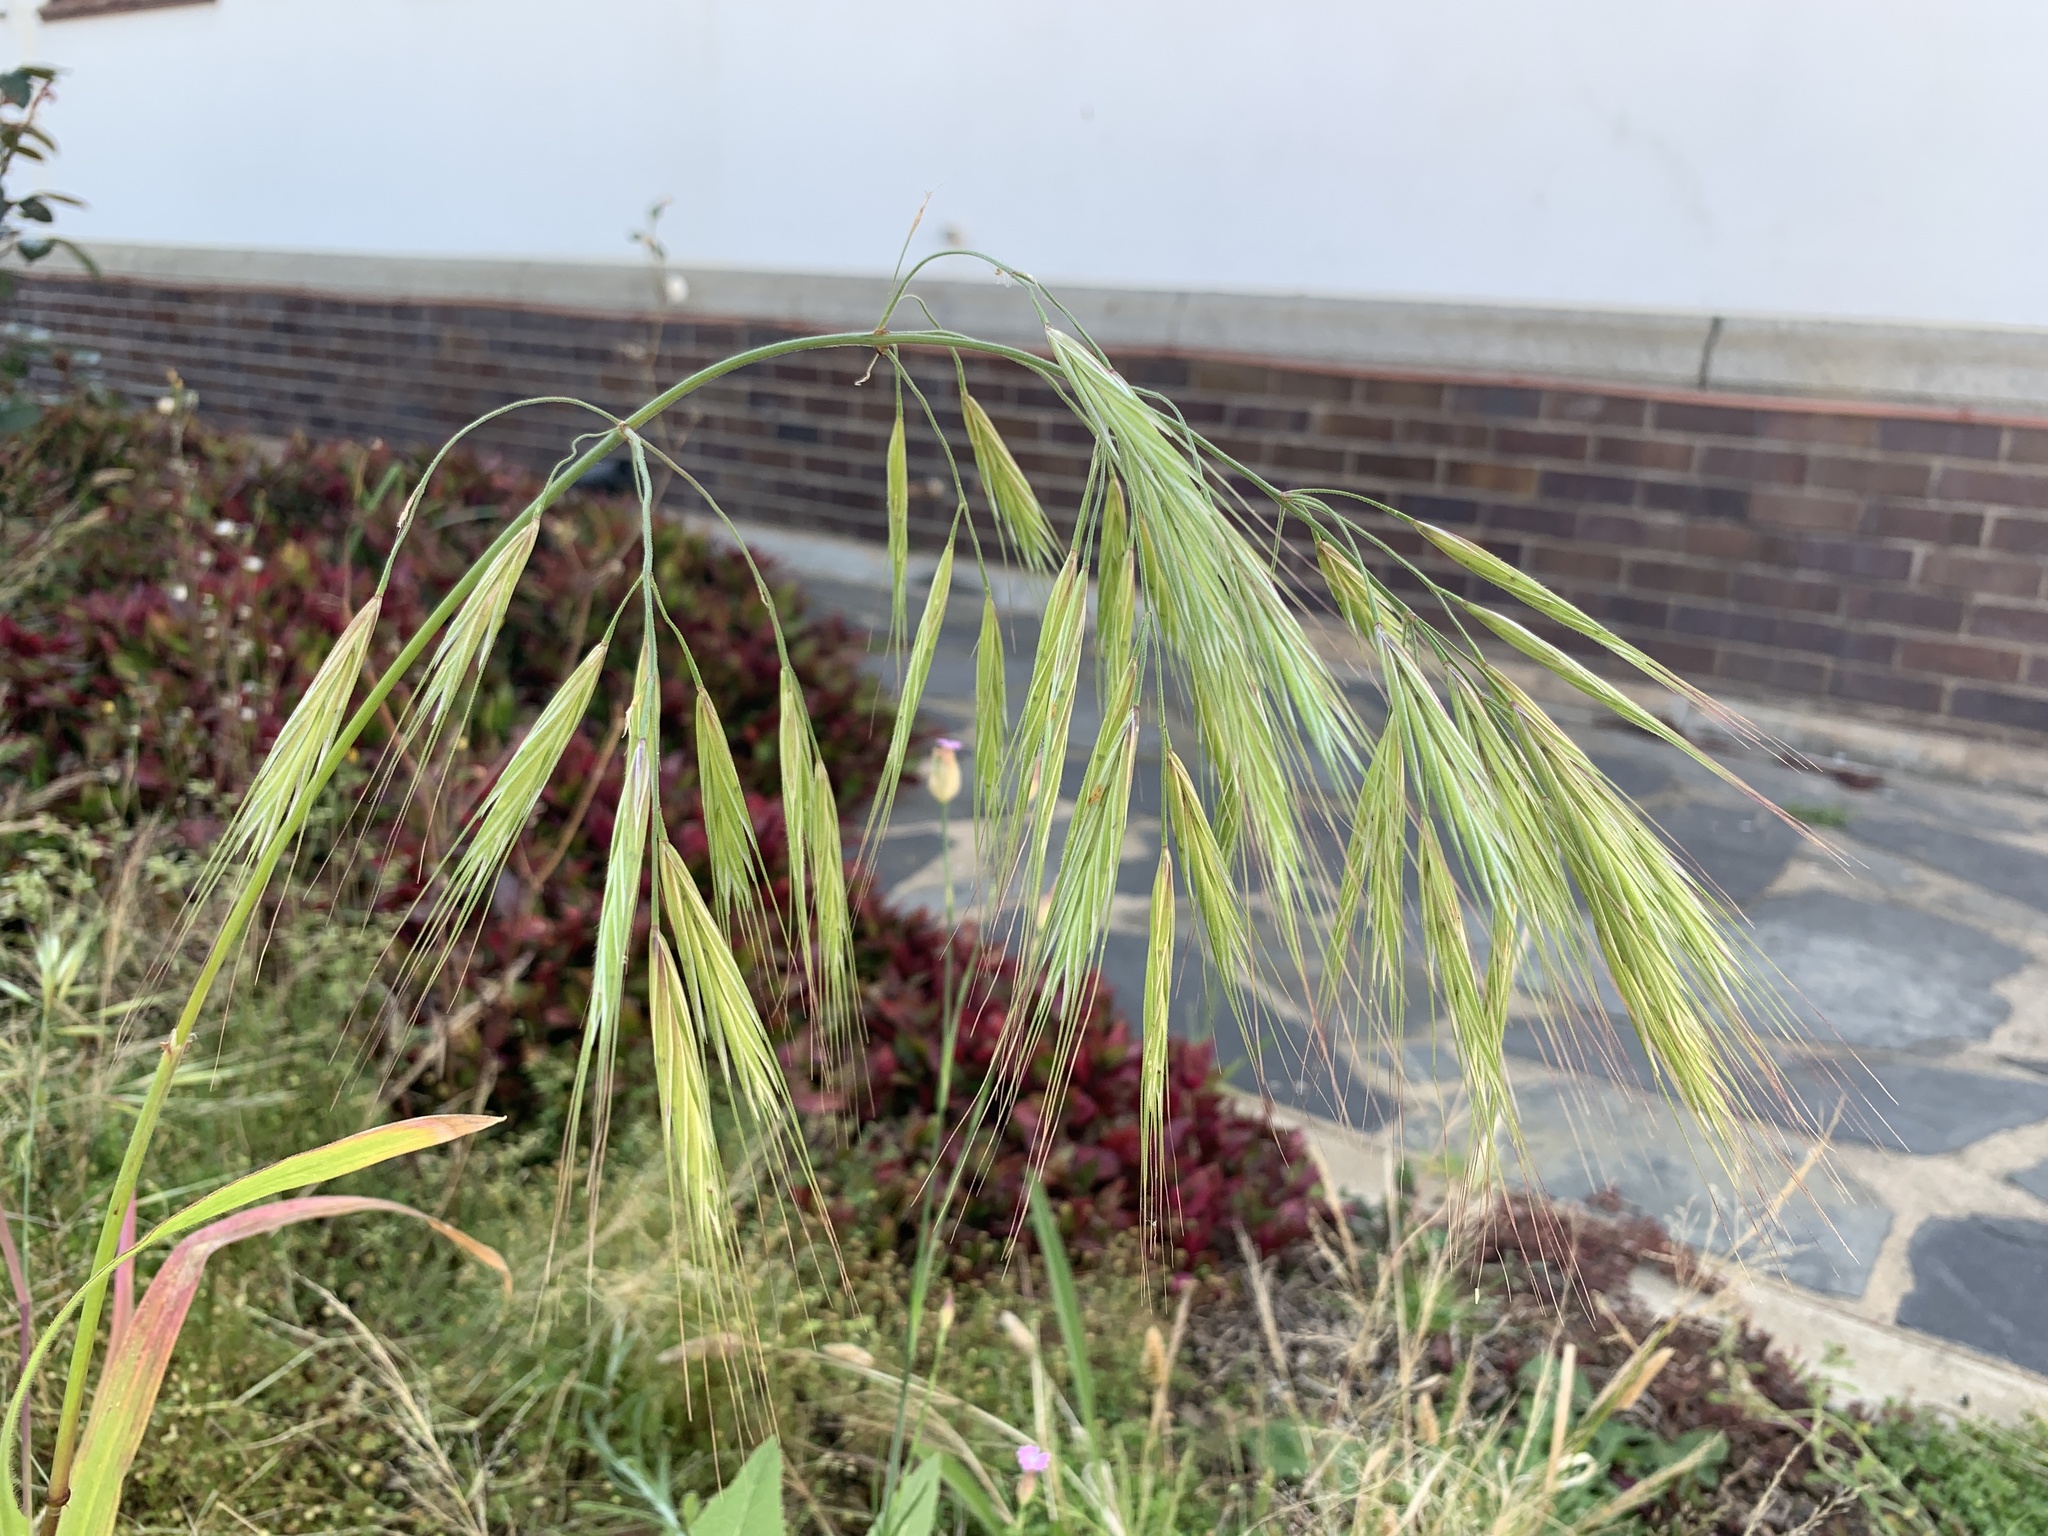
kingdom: Plantae
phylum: Tracheophyta
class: Liliopsida
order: Poales
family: Poaceae
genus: Bromus
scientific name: Bromus diandrus
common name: Ripgut brome
